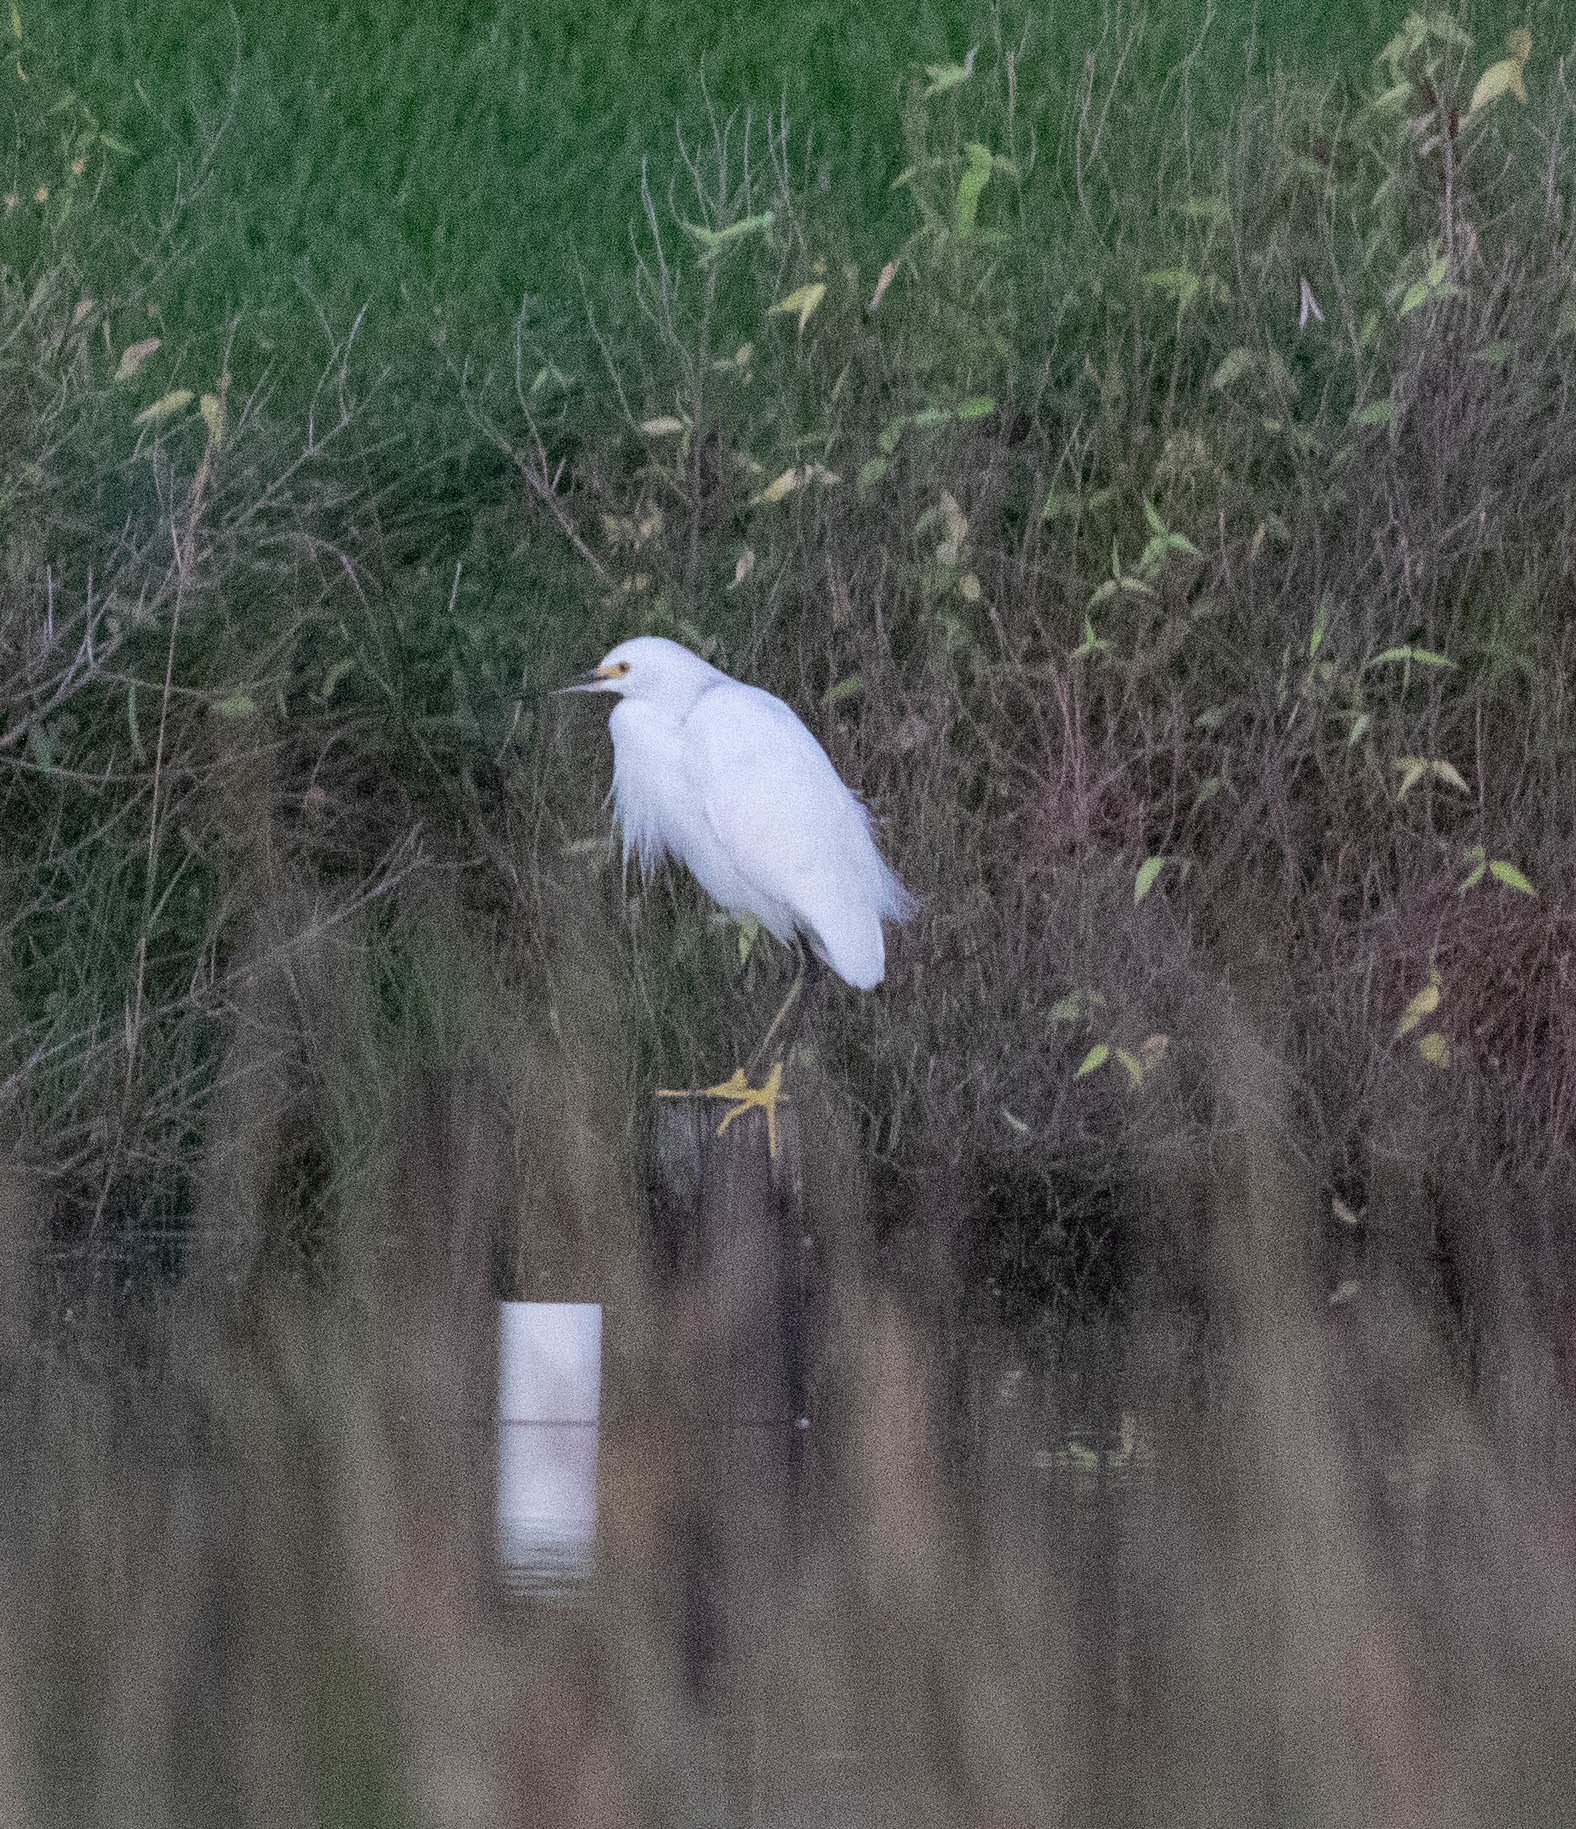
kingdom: Animalia
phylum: Chordata
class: Aves
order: Pelecaniformes
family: Ardeidae
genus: Egretta
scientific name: Egretta thula
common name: Snowy egret
